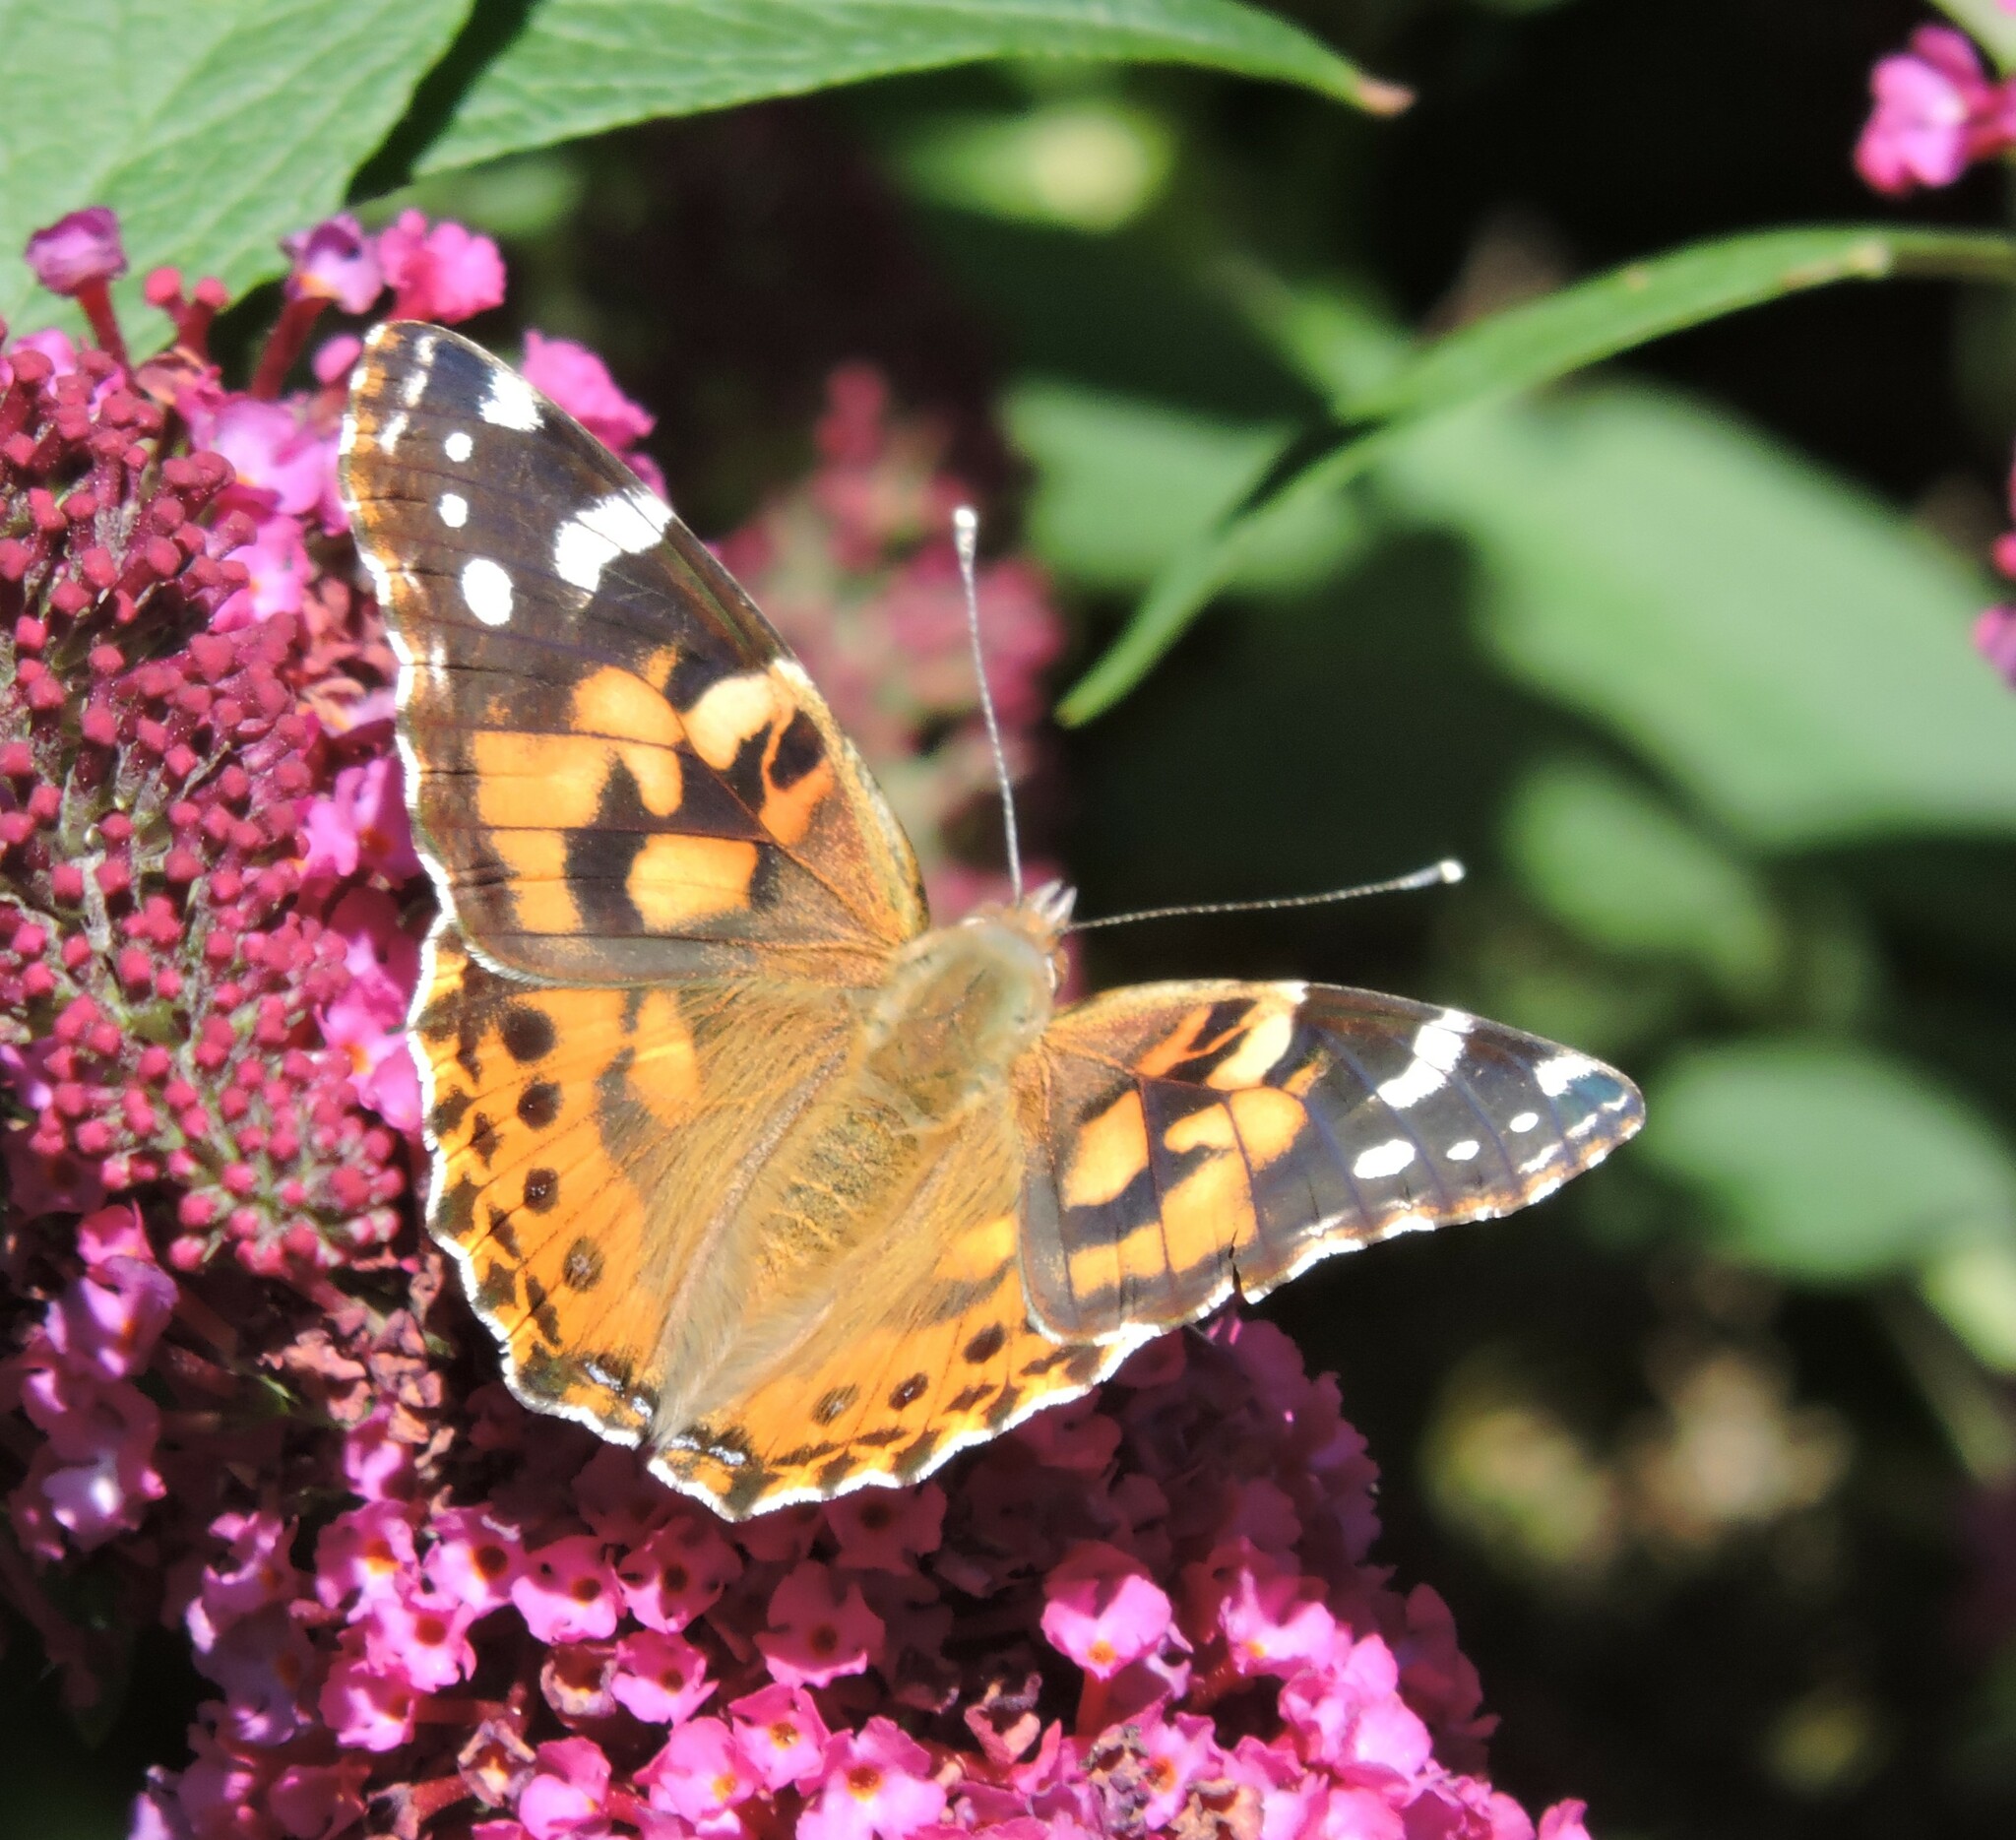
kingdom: Animalia
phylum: Arthropoda
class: Insecta
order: Lepidoptera
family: Nymphalidae
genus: Vanessa
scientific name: Vanessa cardui
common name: Painted lady
